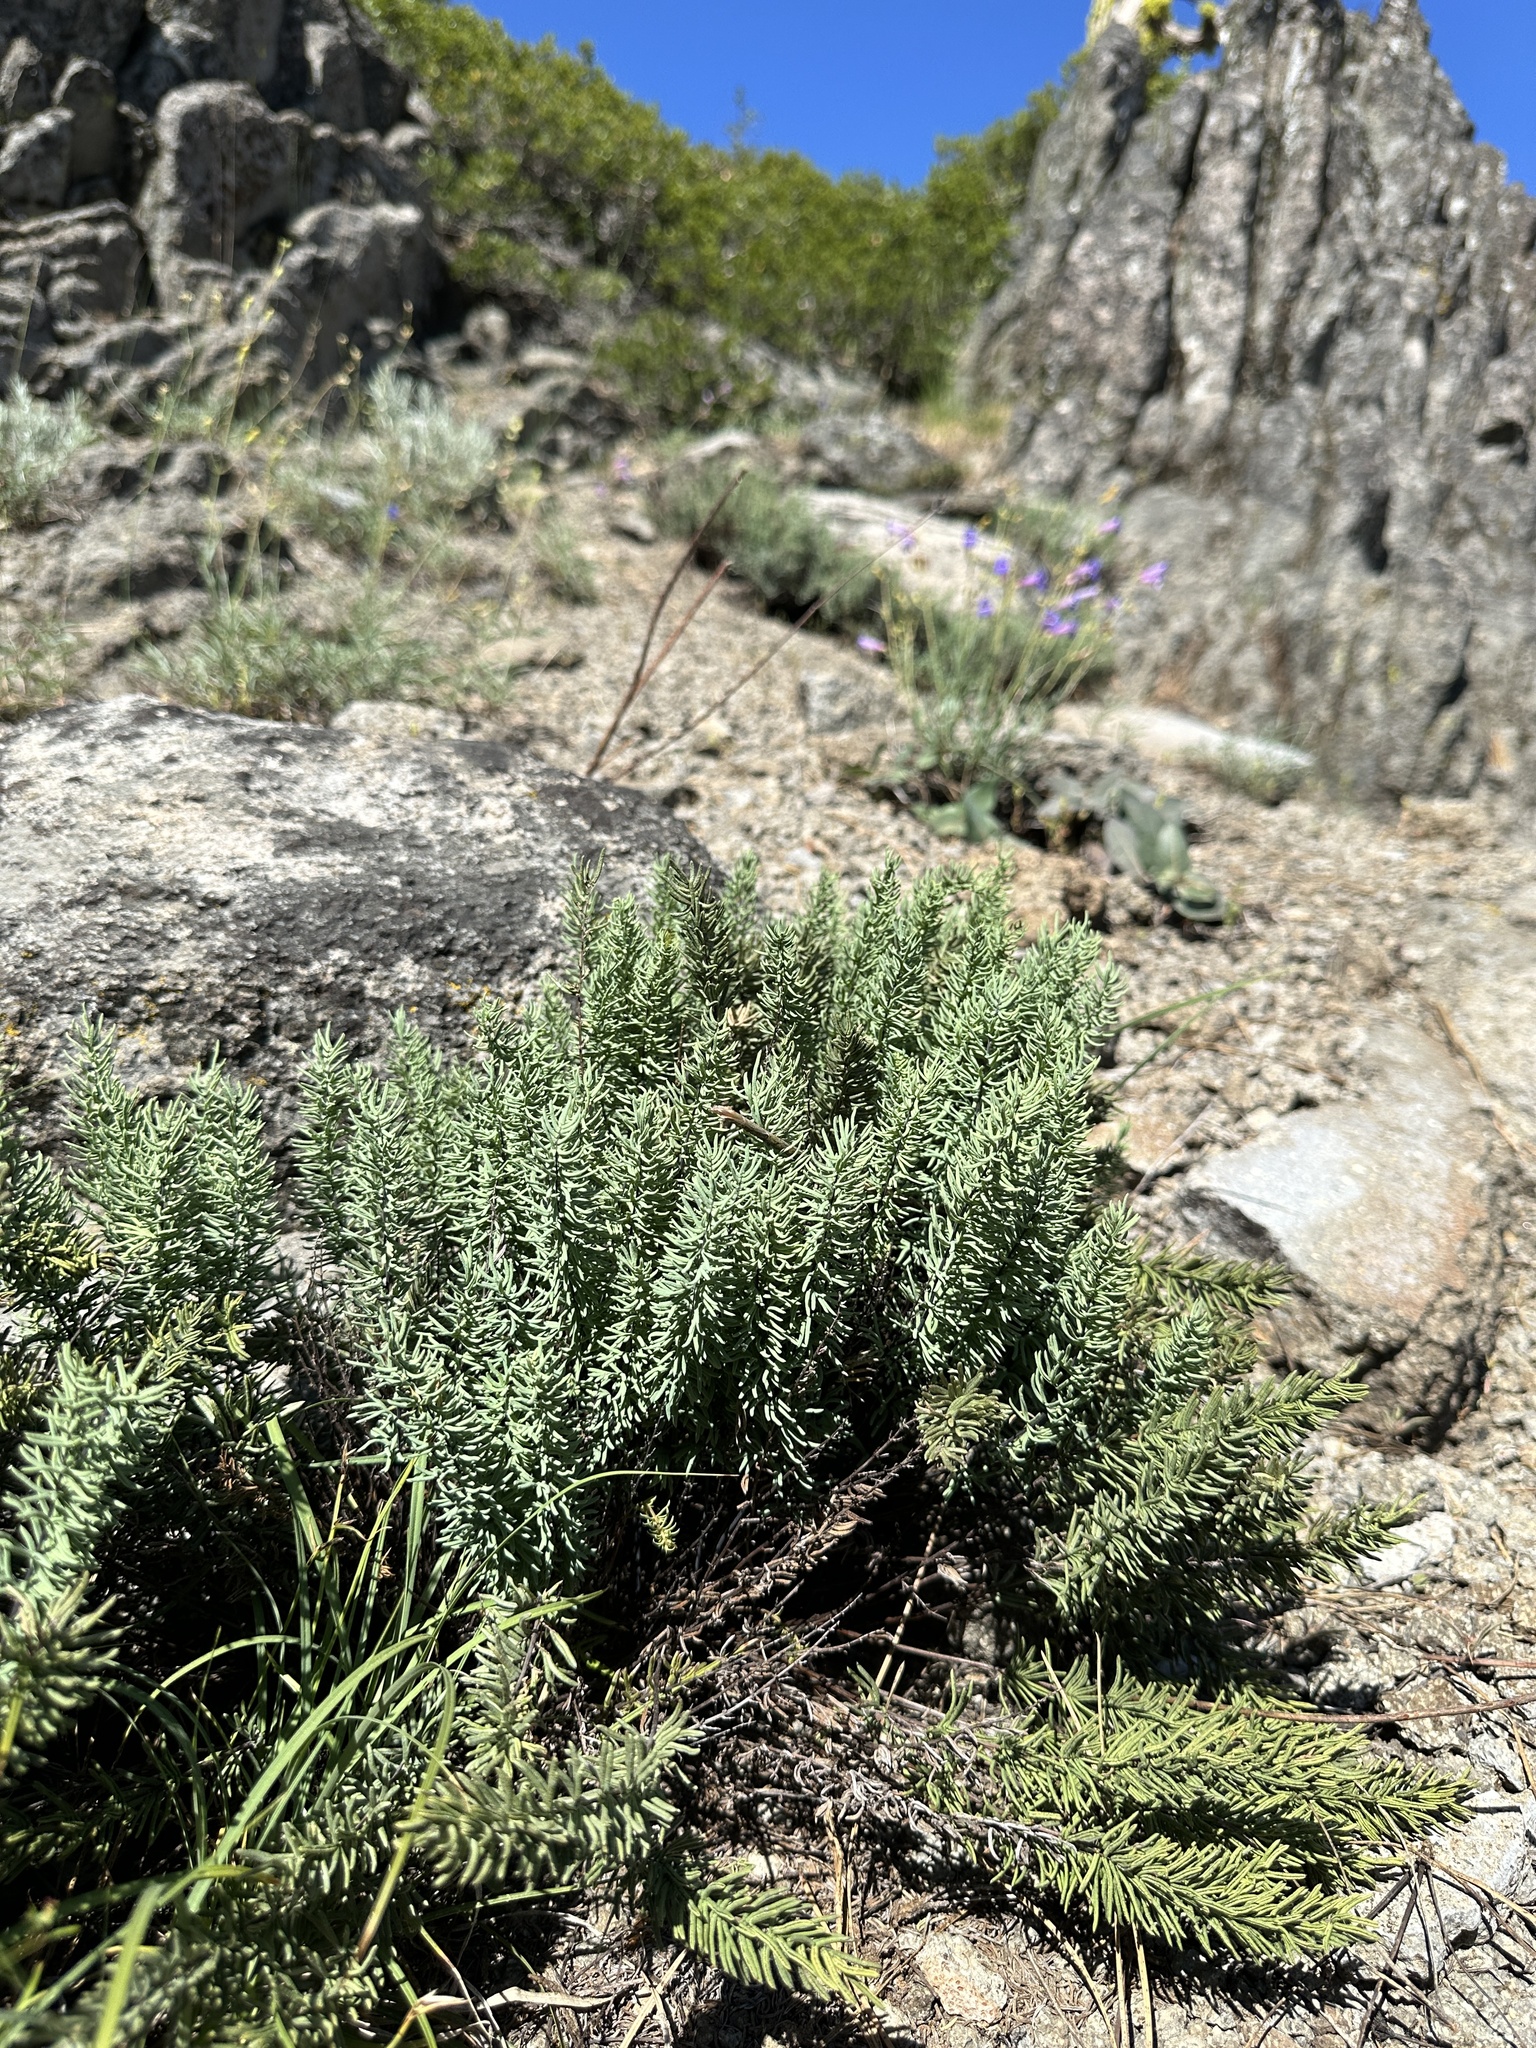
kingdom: Plantae
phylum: Tracheophyta
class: Polypodiopsida
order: Polypodiales
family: Pteridaceae
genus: Pellaea
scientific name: Pellaea brachyptera
